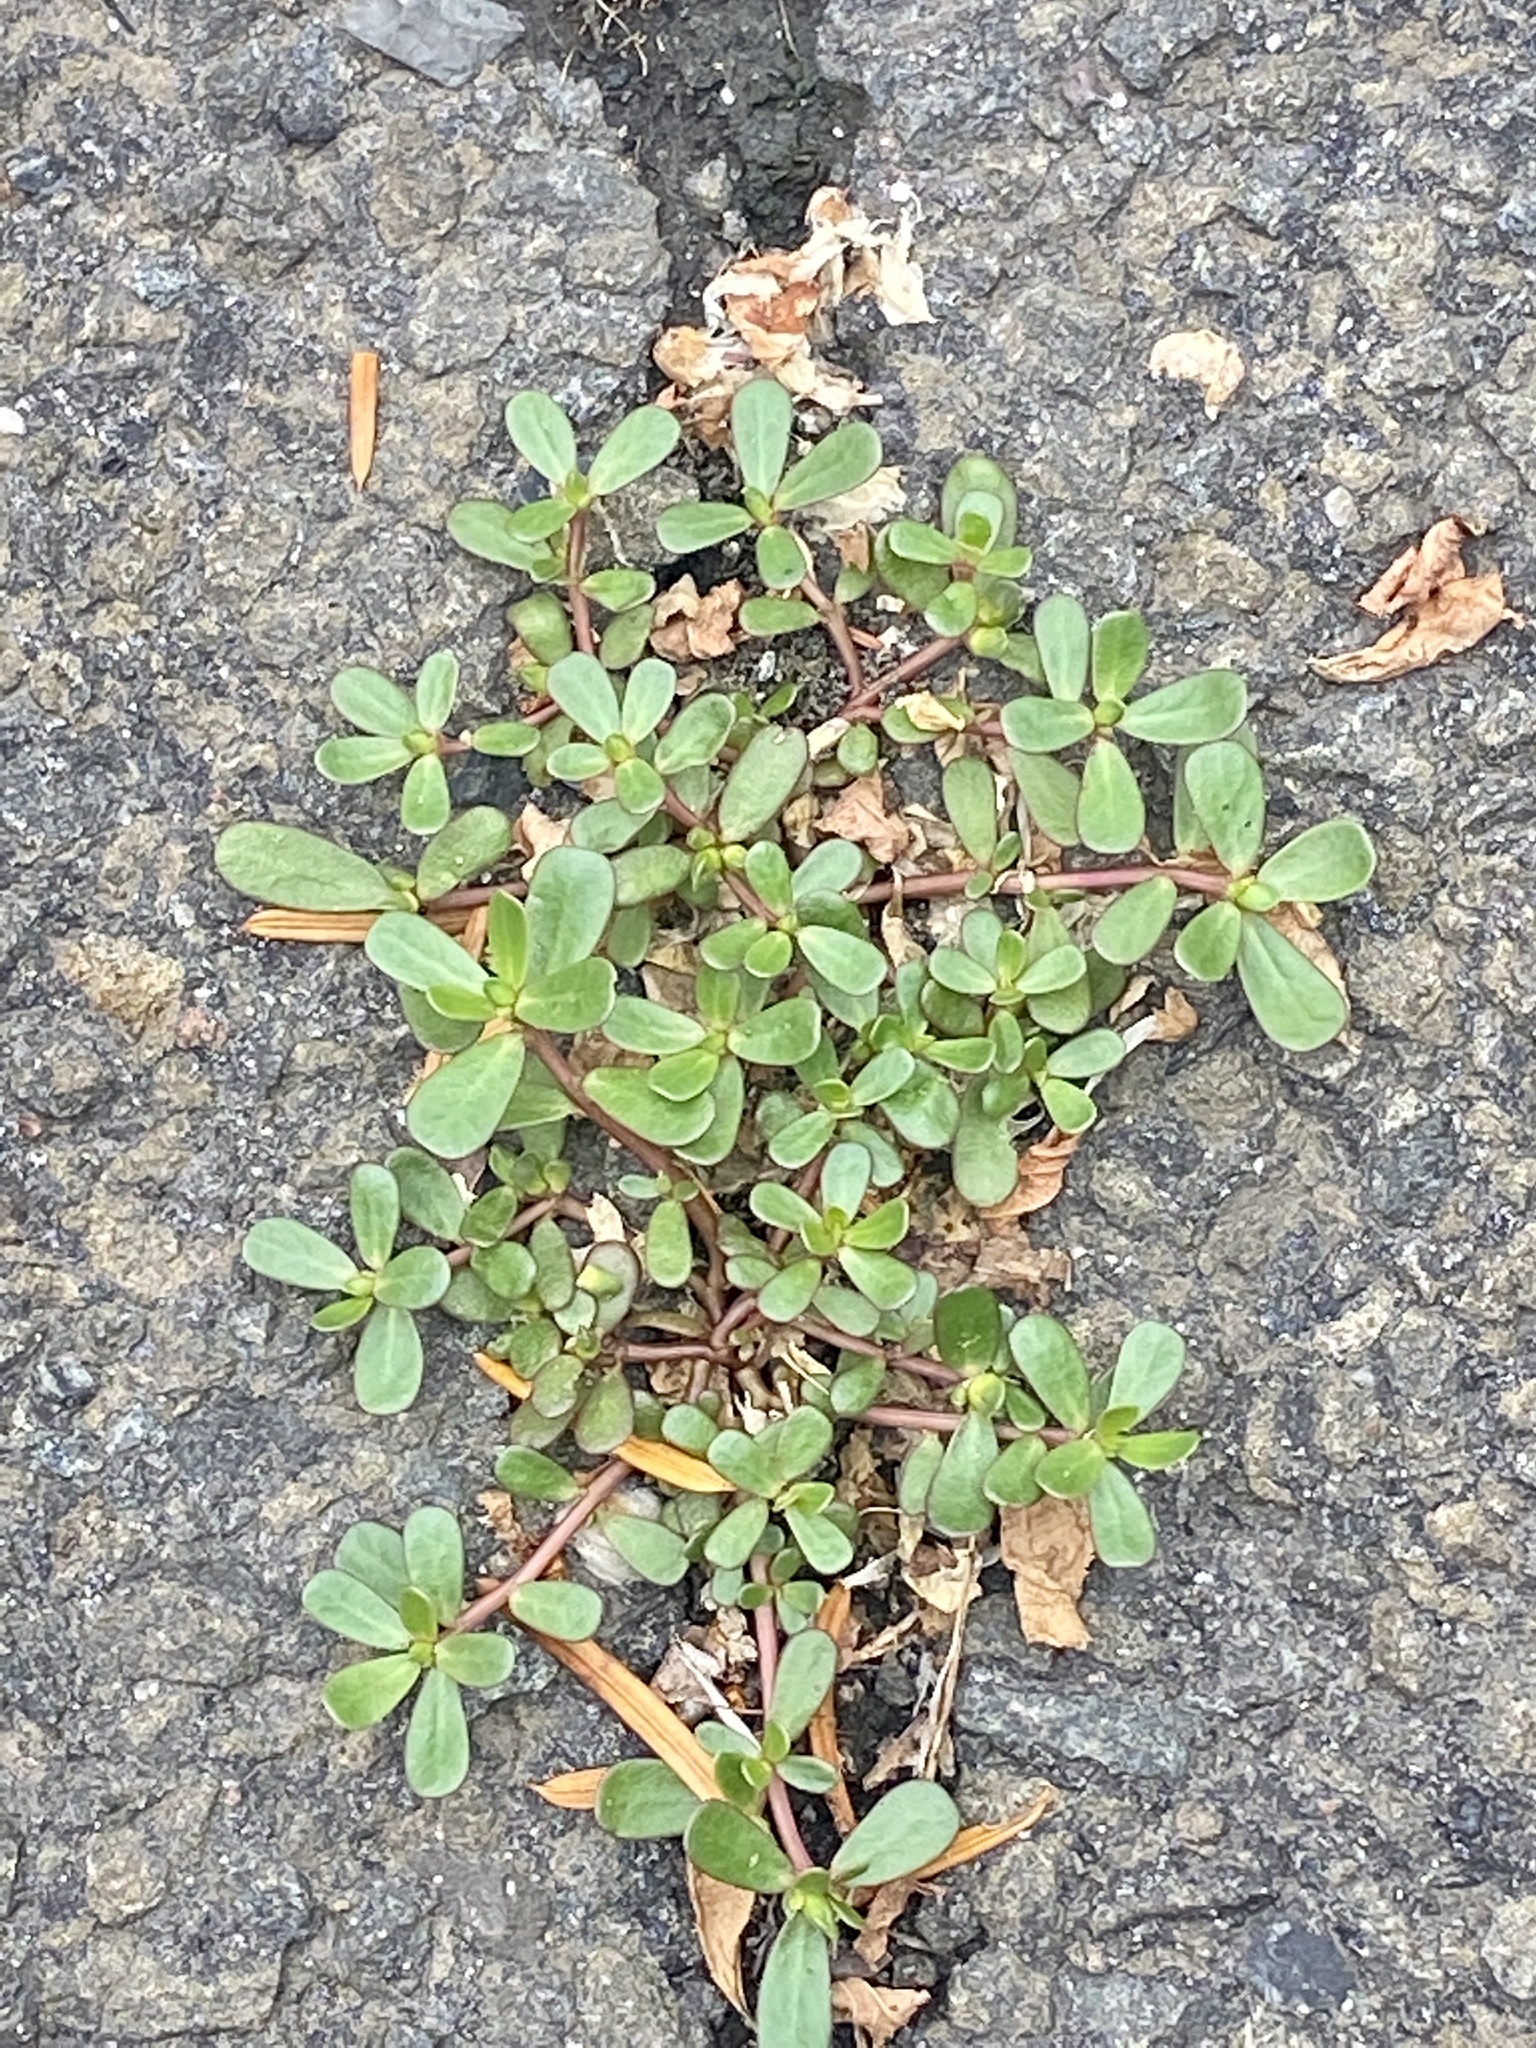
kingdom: Plantae
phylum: Tracheophyta
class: Magnoliopsida
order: Caryophyllales
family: Portulacaceae
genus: Portulaca
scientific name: Portulaca oleracea
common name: Common purslane
